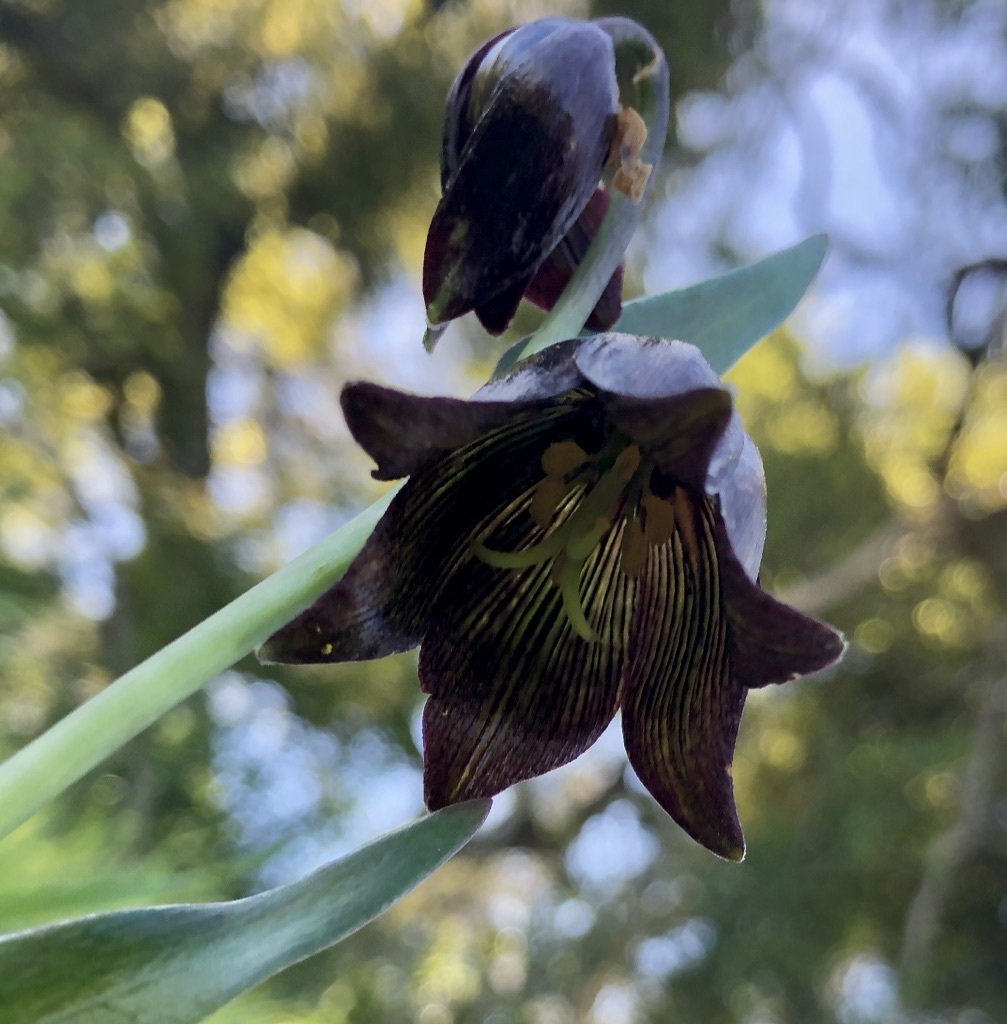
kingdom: Plantae
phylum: Tracheophyta
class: Liliopsida
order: Liliales
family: Liliaceae
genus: Fritillaria
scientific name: Fritillaria biflora
